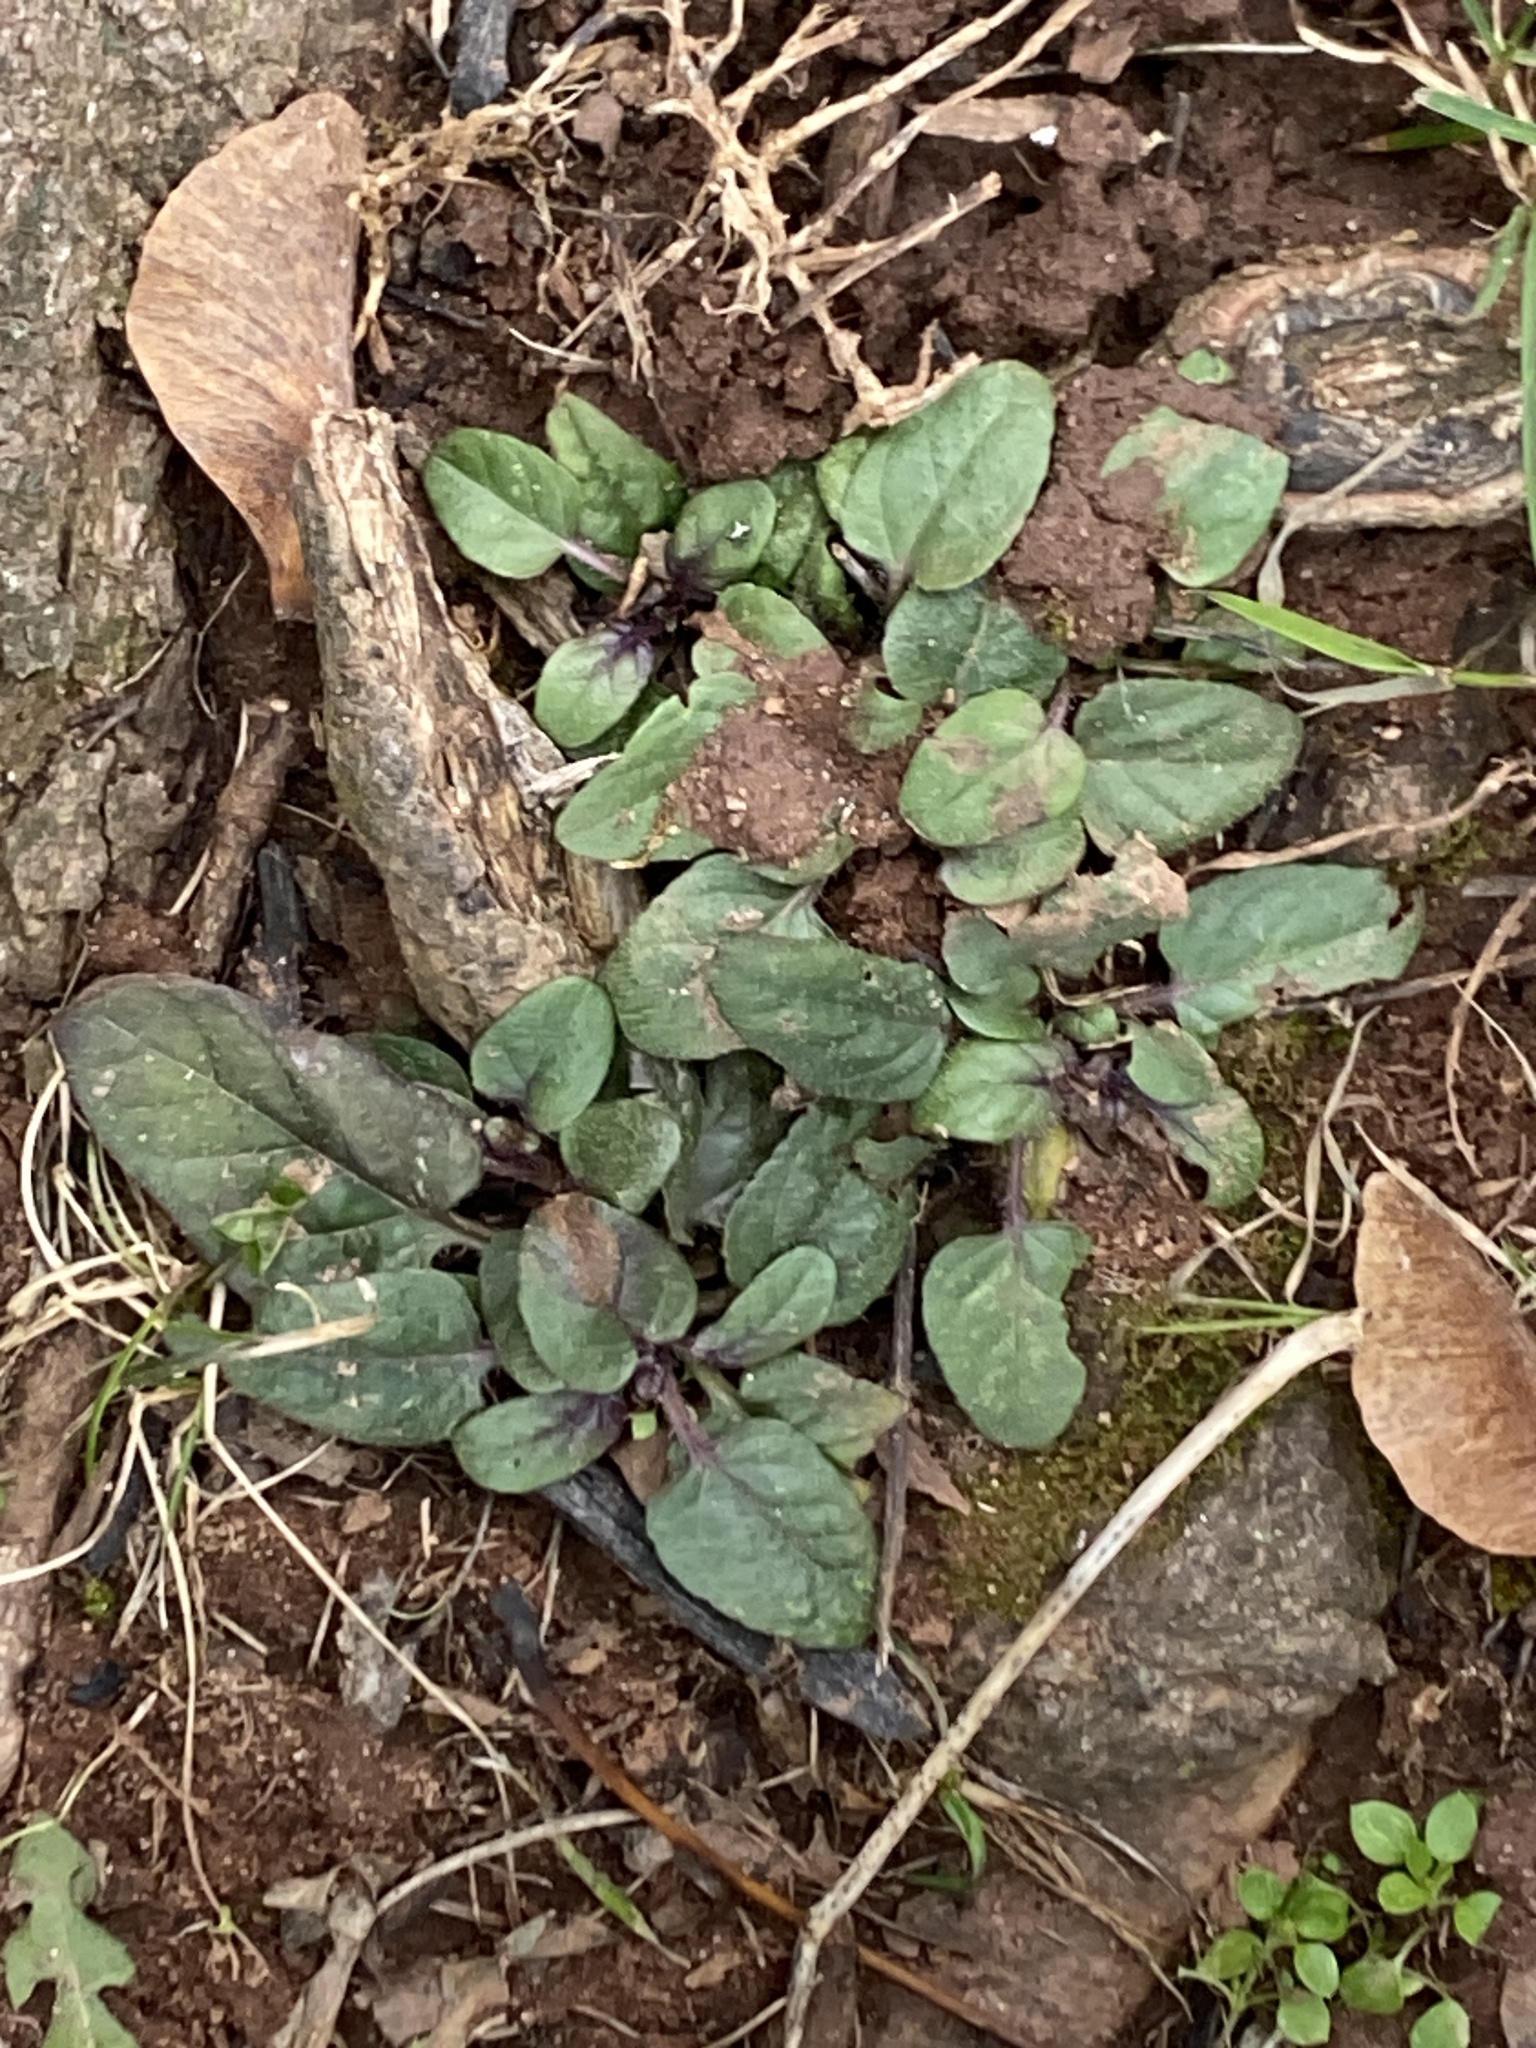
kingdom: Plantae
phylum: Tracheophyta
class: Magnoliopsida
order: Lamiales
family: Lamiaceae
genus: Prunella
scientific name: Prunella vulgaris
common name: Heal-all
